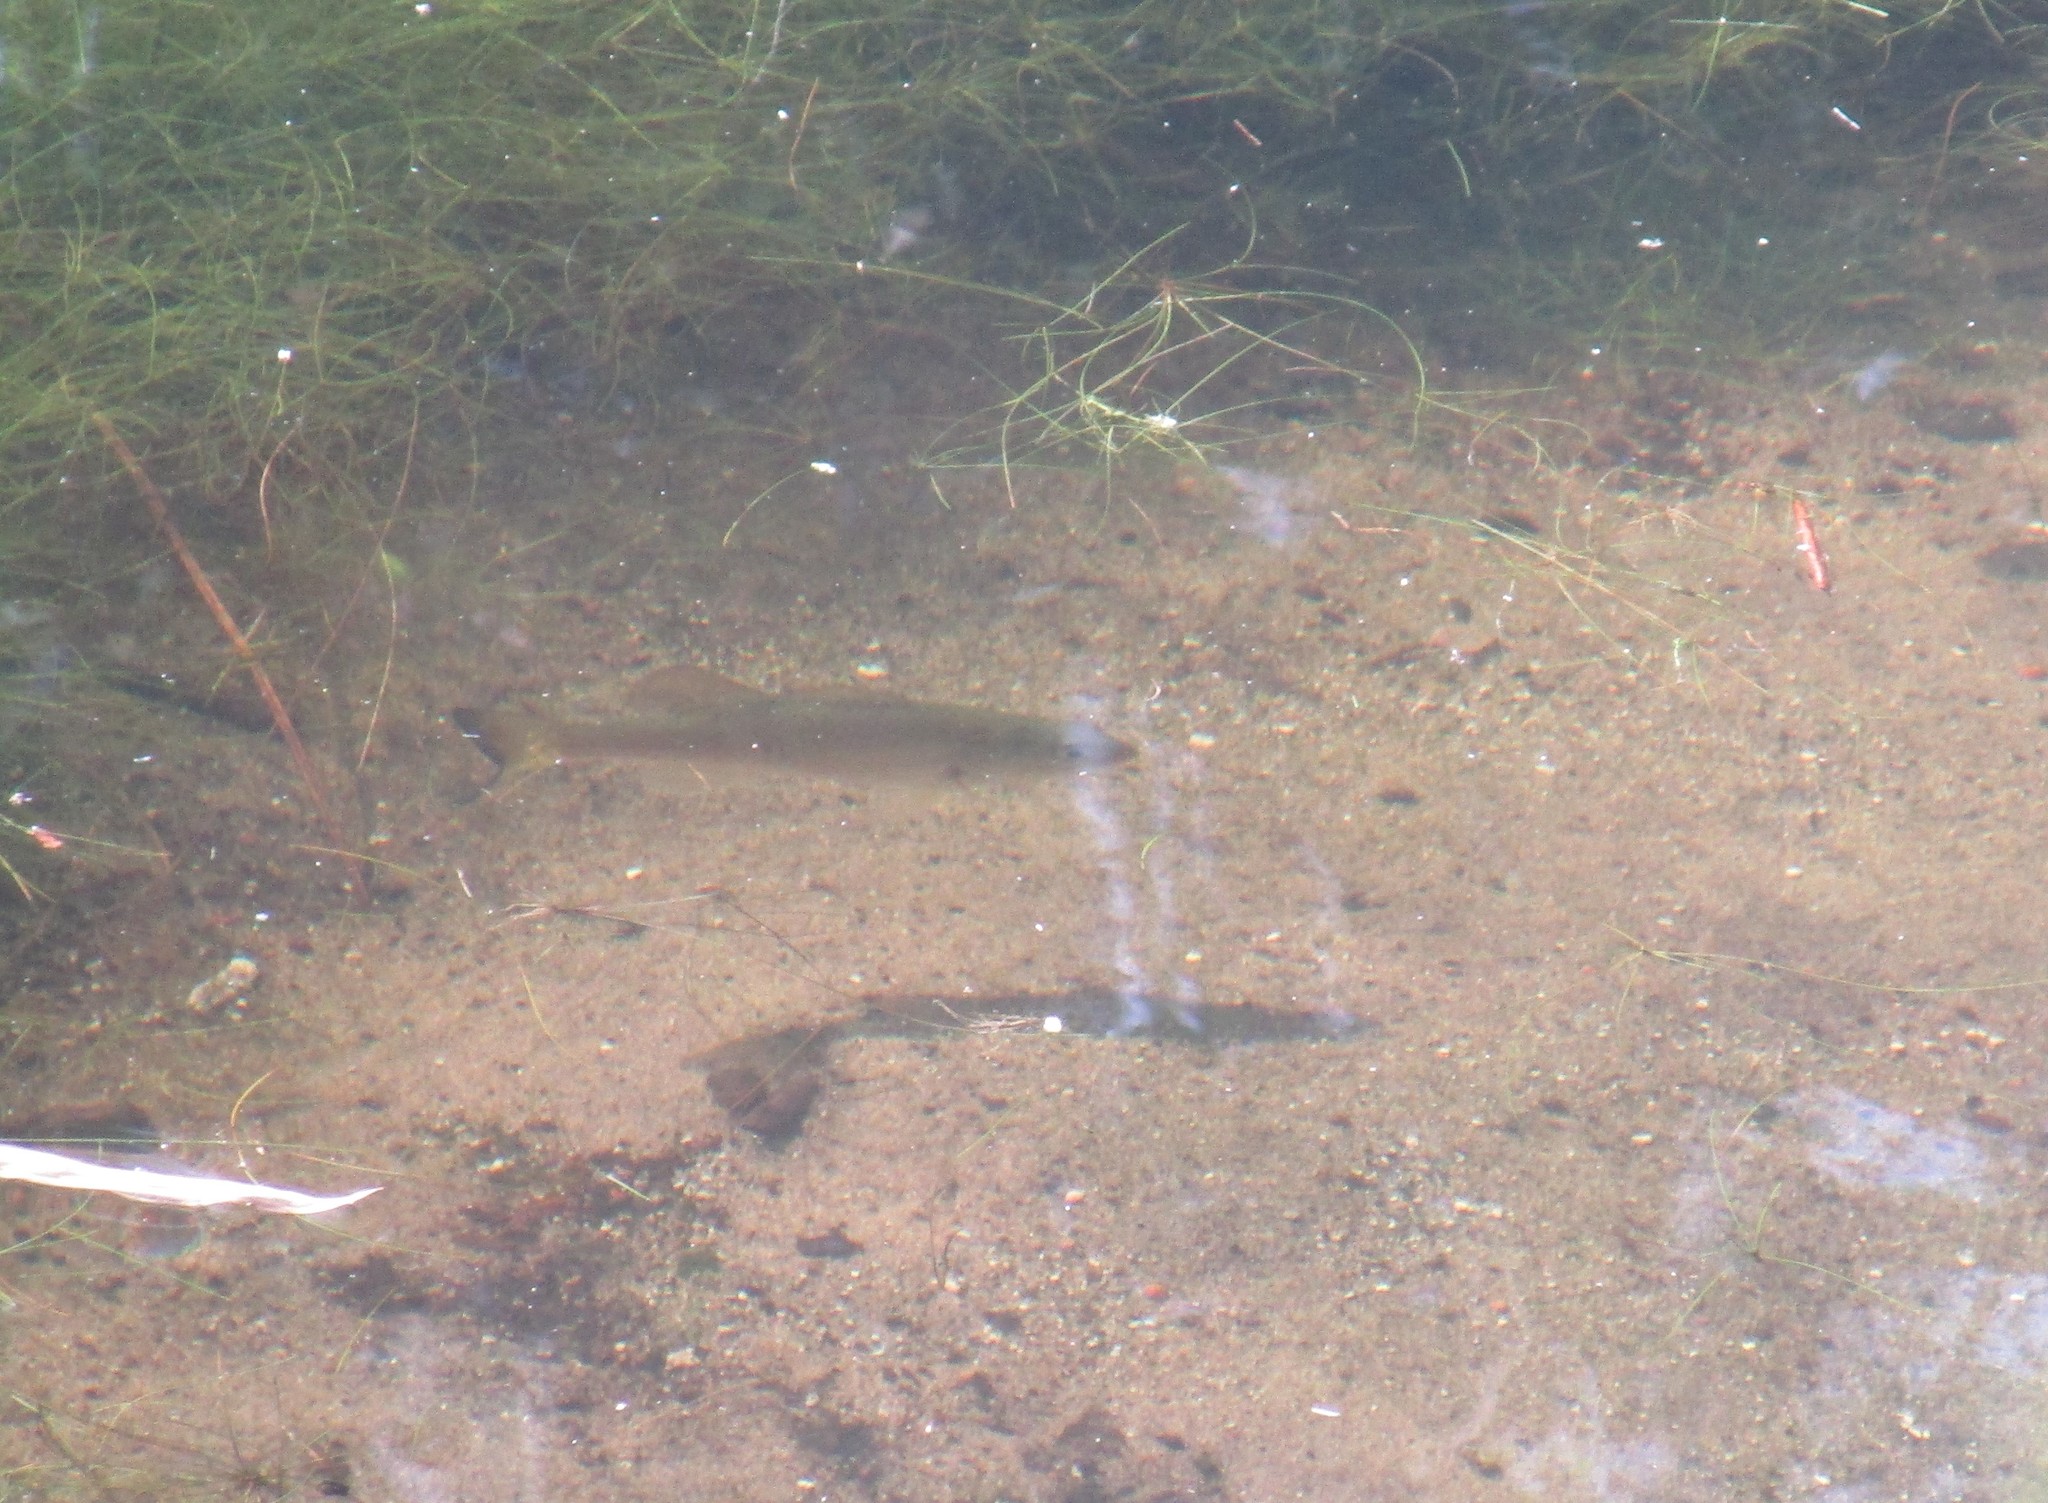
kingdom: Animalia
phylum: Chordata
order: Perciformes
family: Centrarchidae
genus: Micropterus
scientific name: Micropterus salmoides
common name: Largemouth bass
